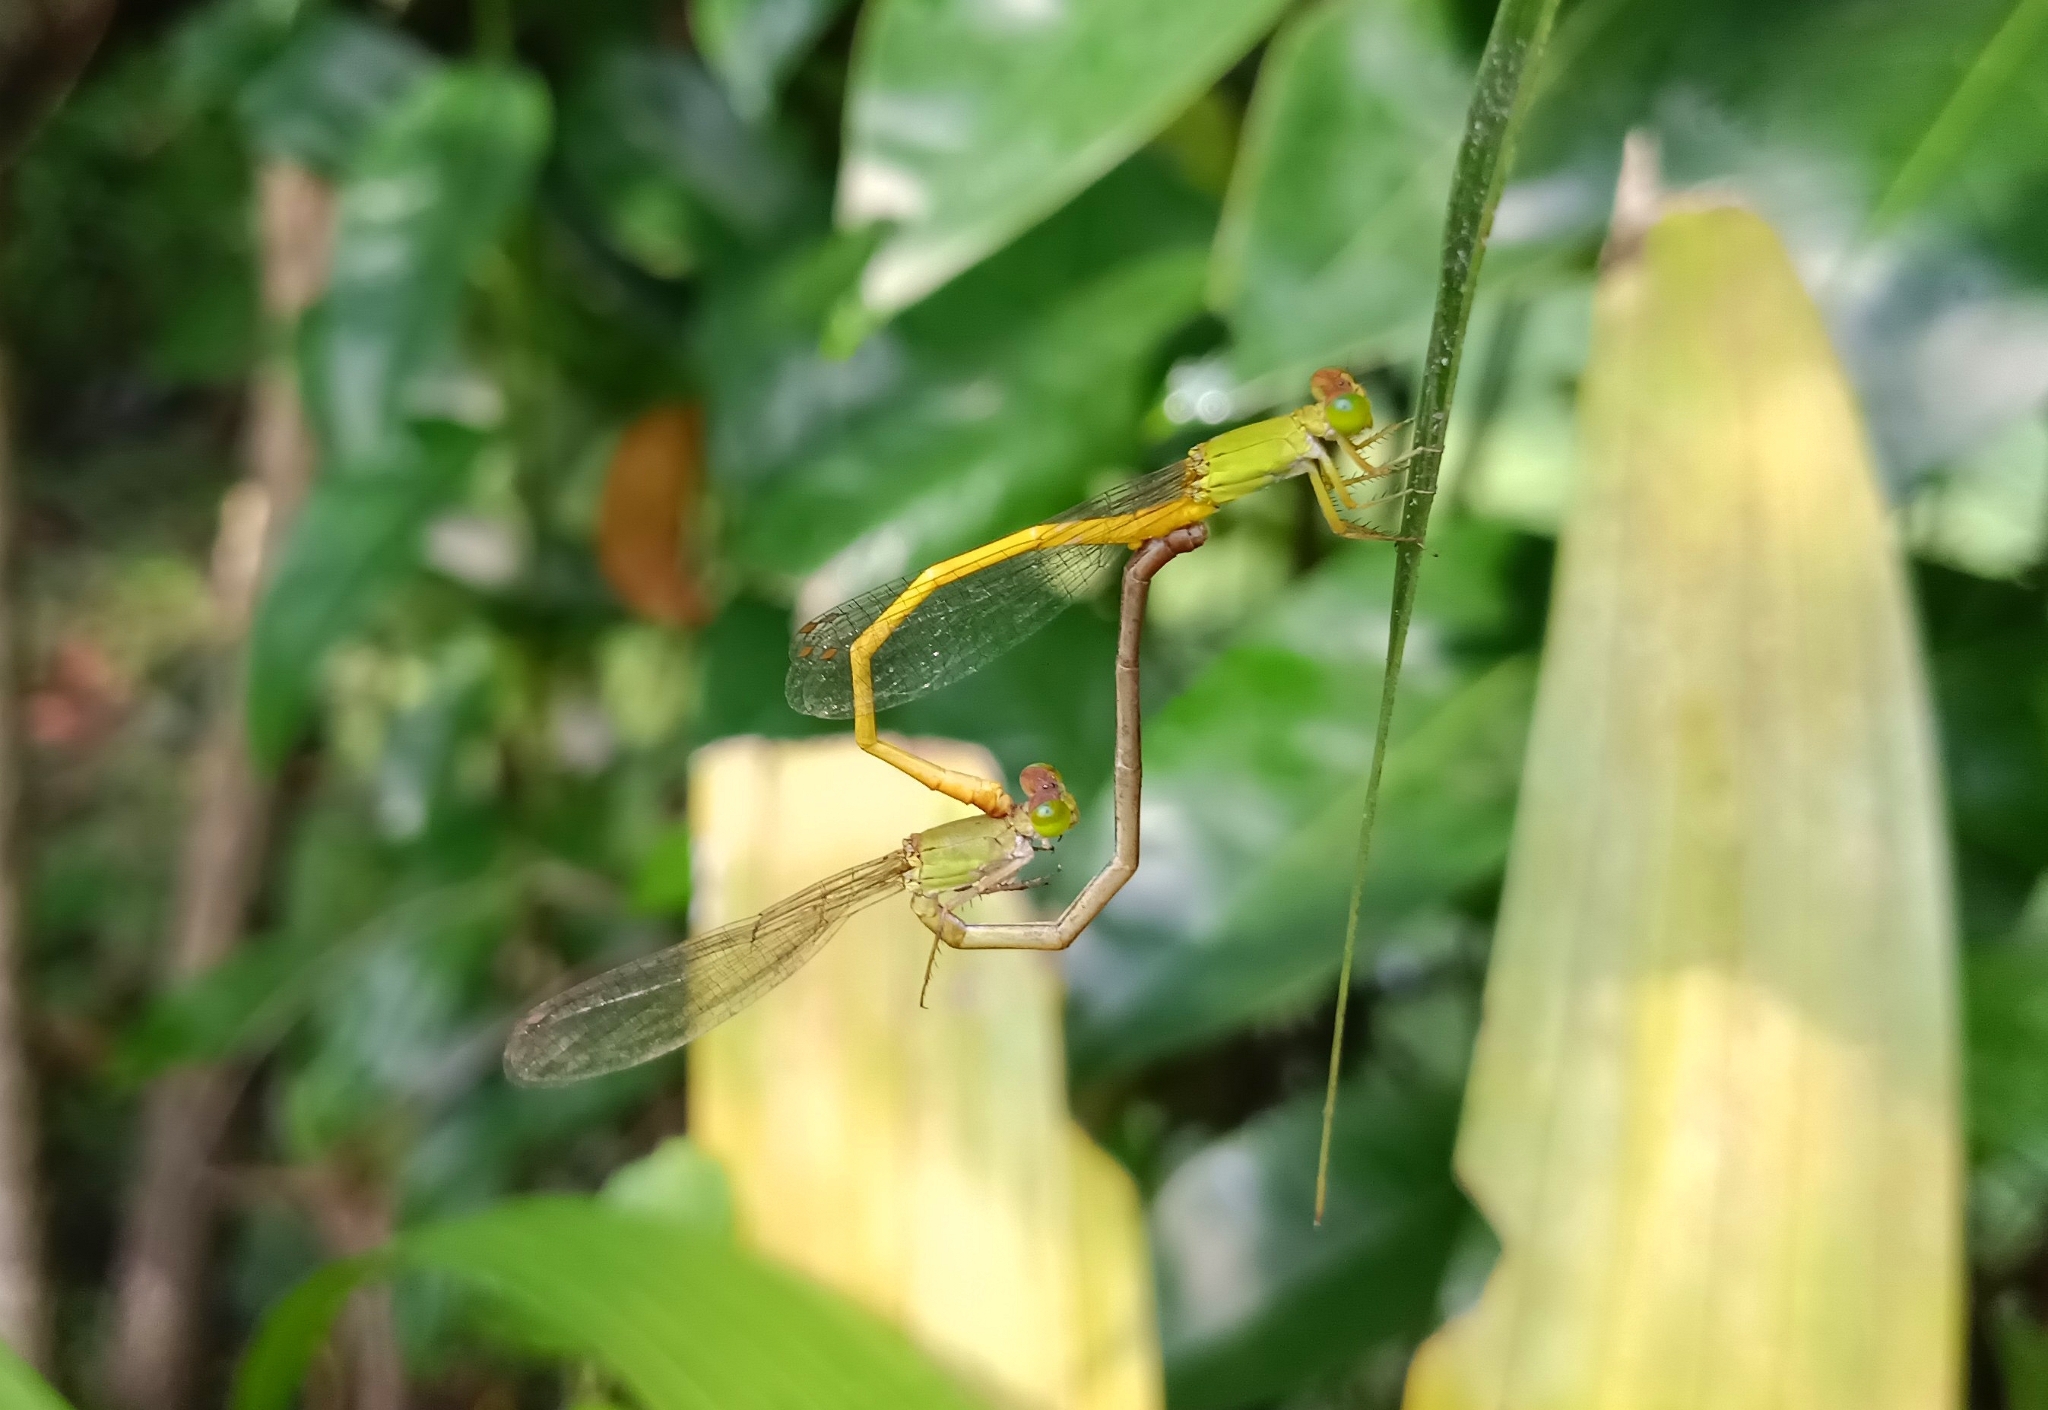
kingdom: Animalia
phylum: Arthropoda
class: Insecta
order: Odonata
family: Coenagrionidae
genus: Ceriagrion
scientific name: Ceriagrion coromandelianum
